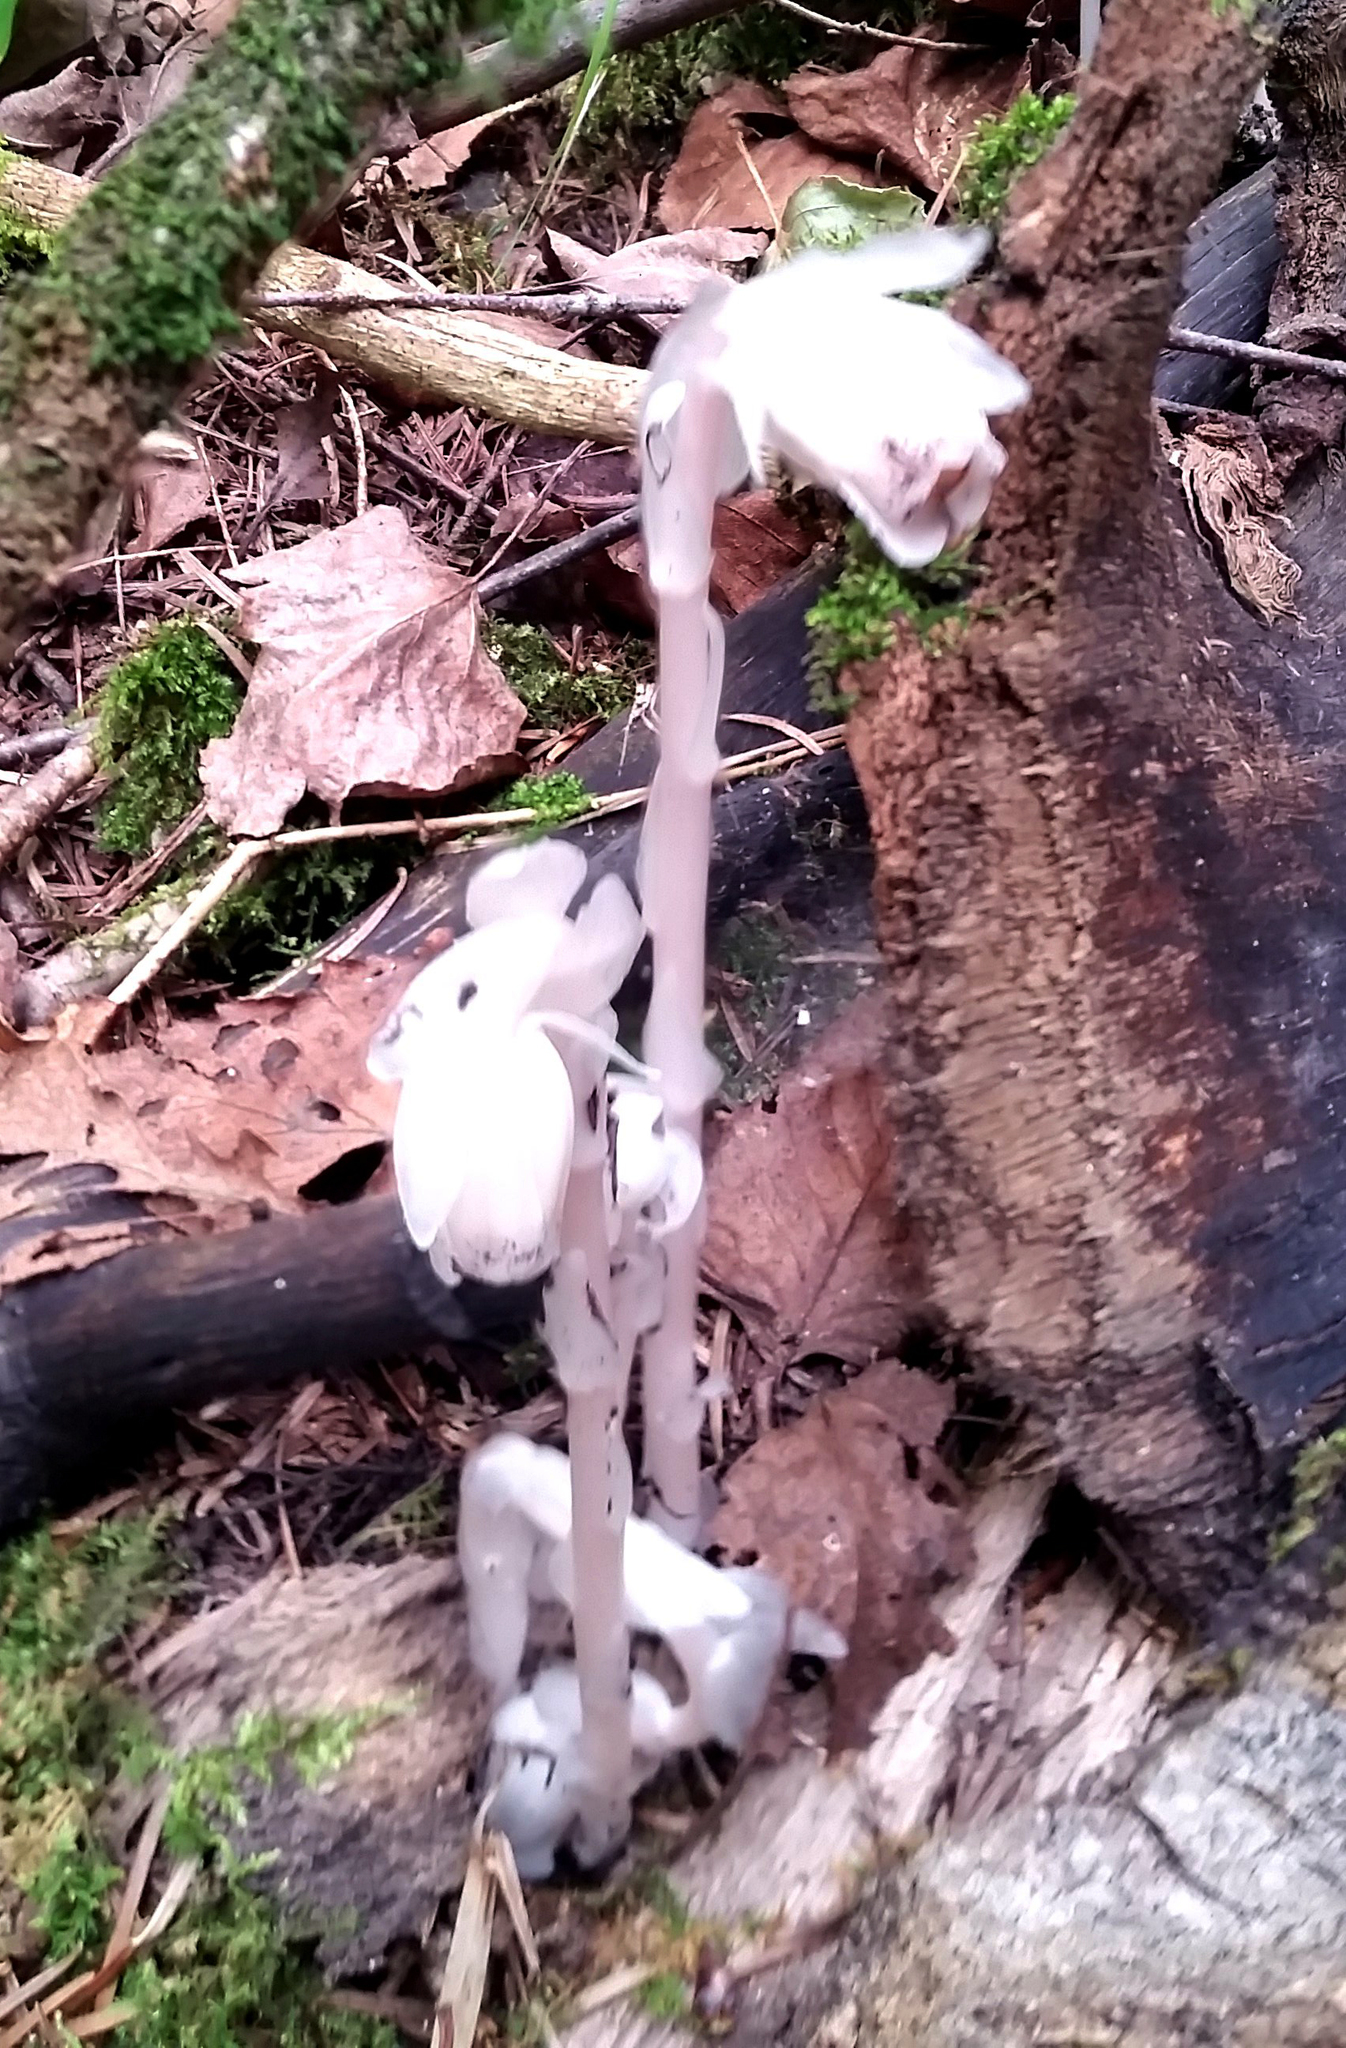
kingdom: Plantae
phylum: Tracheophyta
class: Magnoliopsida
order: Ericales
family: Ericaceae
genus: Monotropa
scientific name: Monotropa uniflora
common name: Convulsion root
